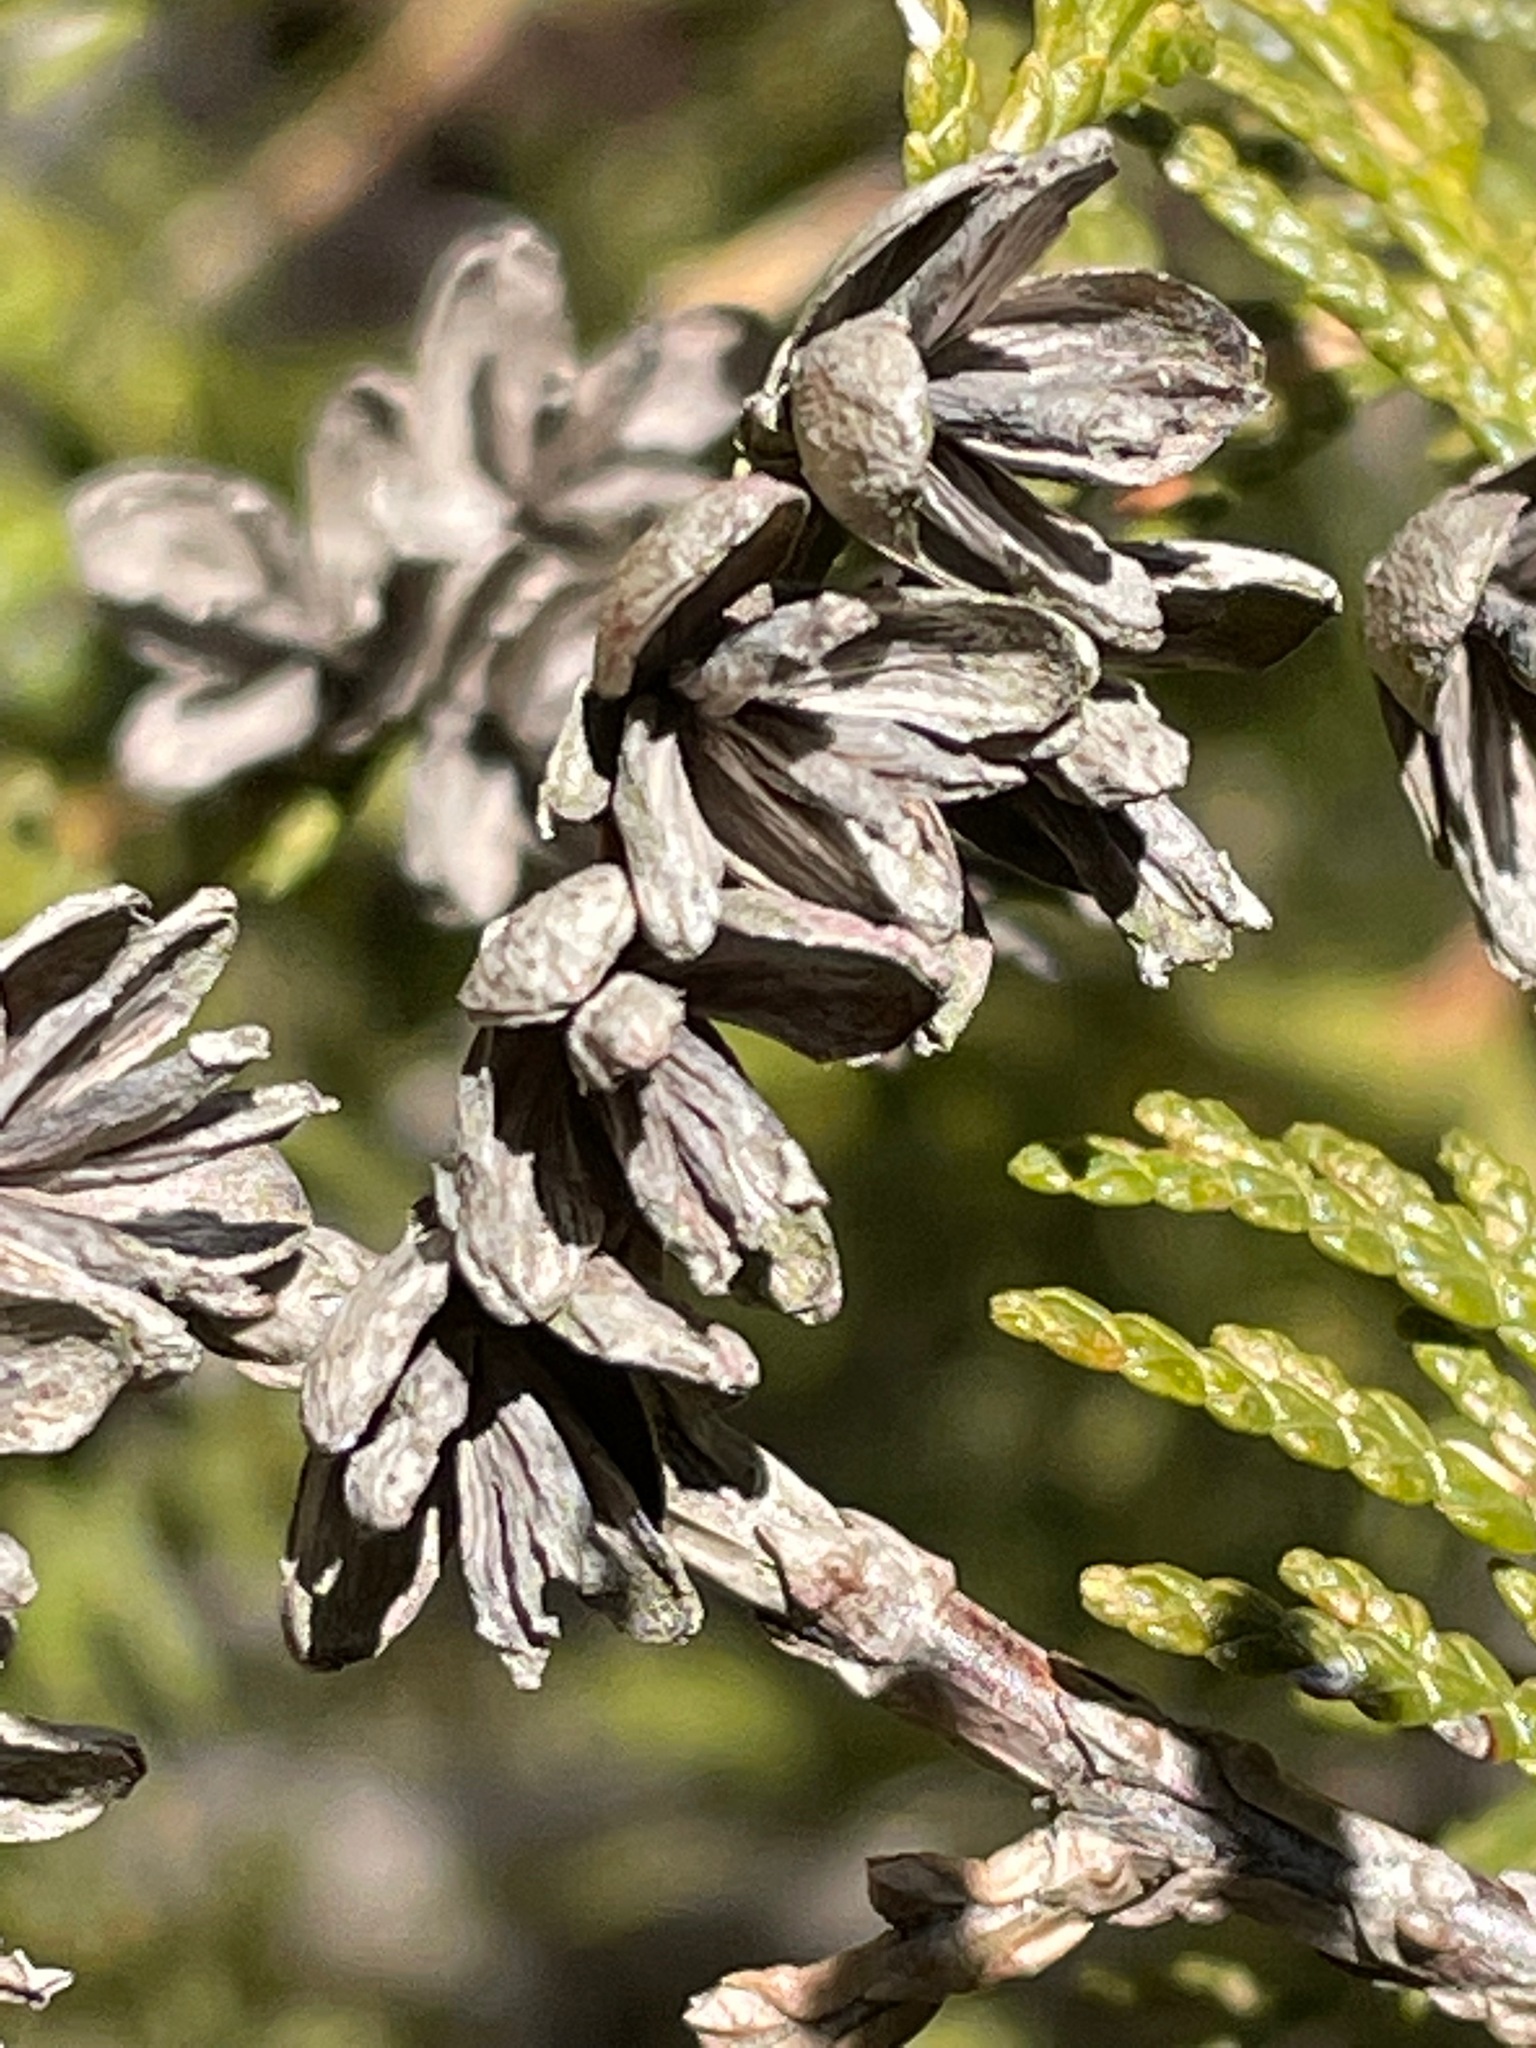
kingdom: Plantae
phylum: Tracheophyta
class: Pinopsida
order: Pinales
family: Cupressaceae
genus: Thuja
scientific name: Thuja occidentalis
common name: Northern white-cedar
